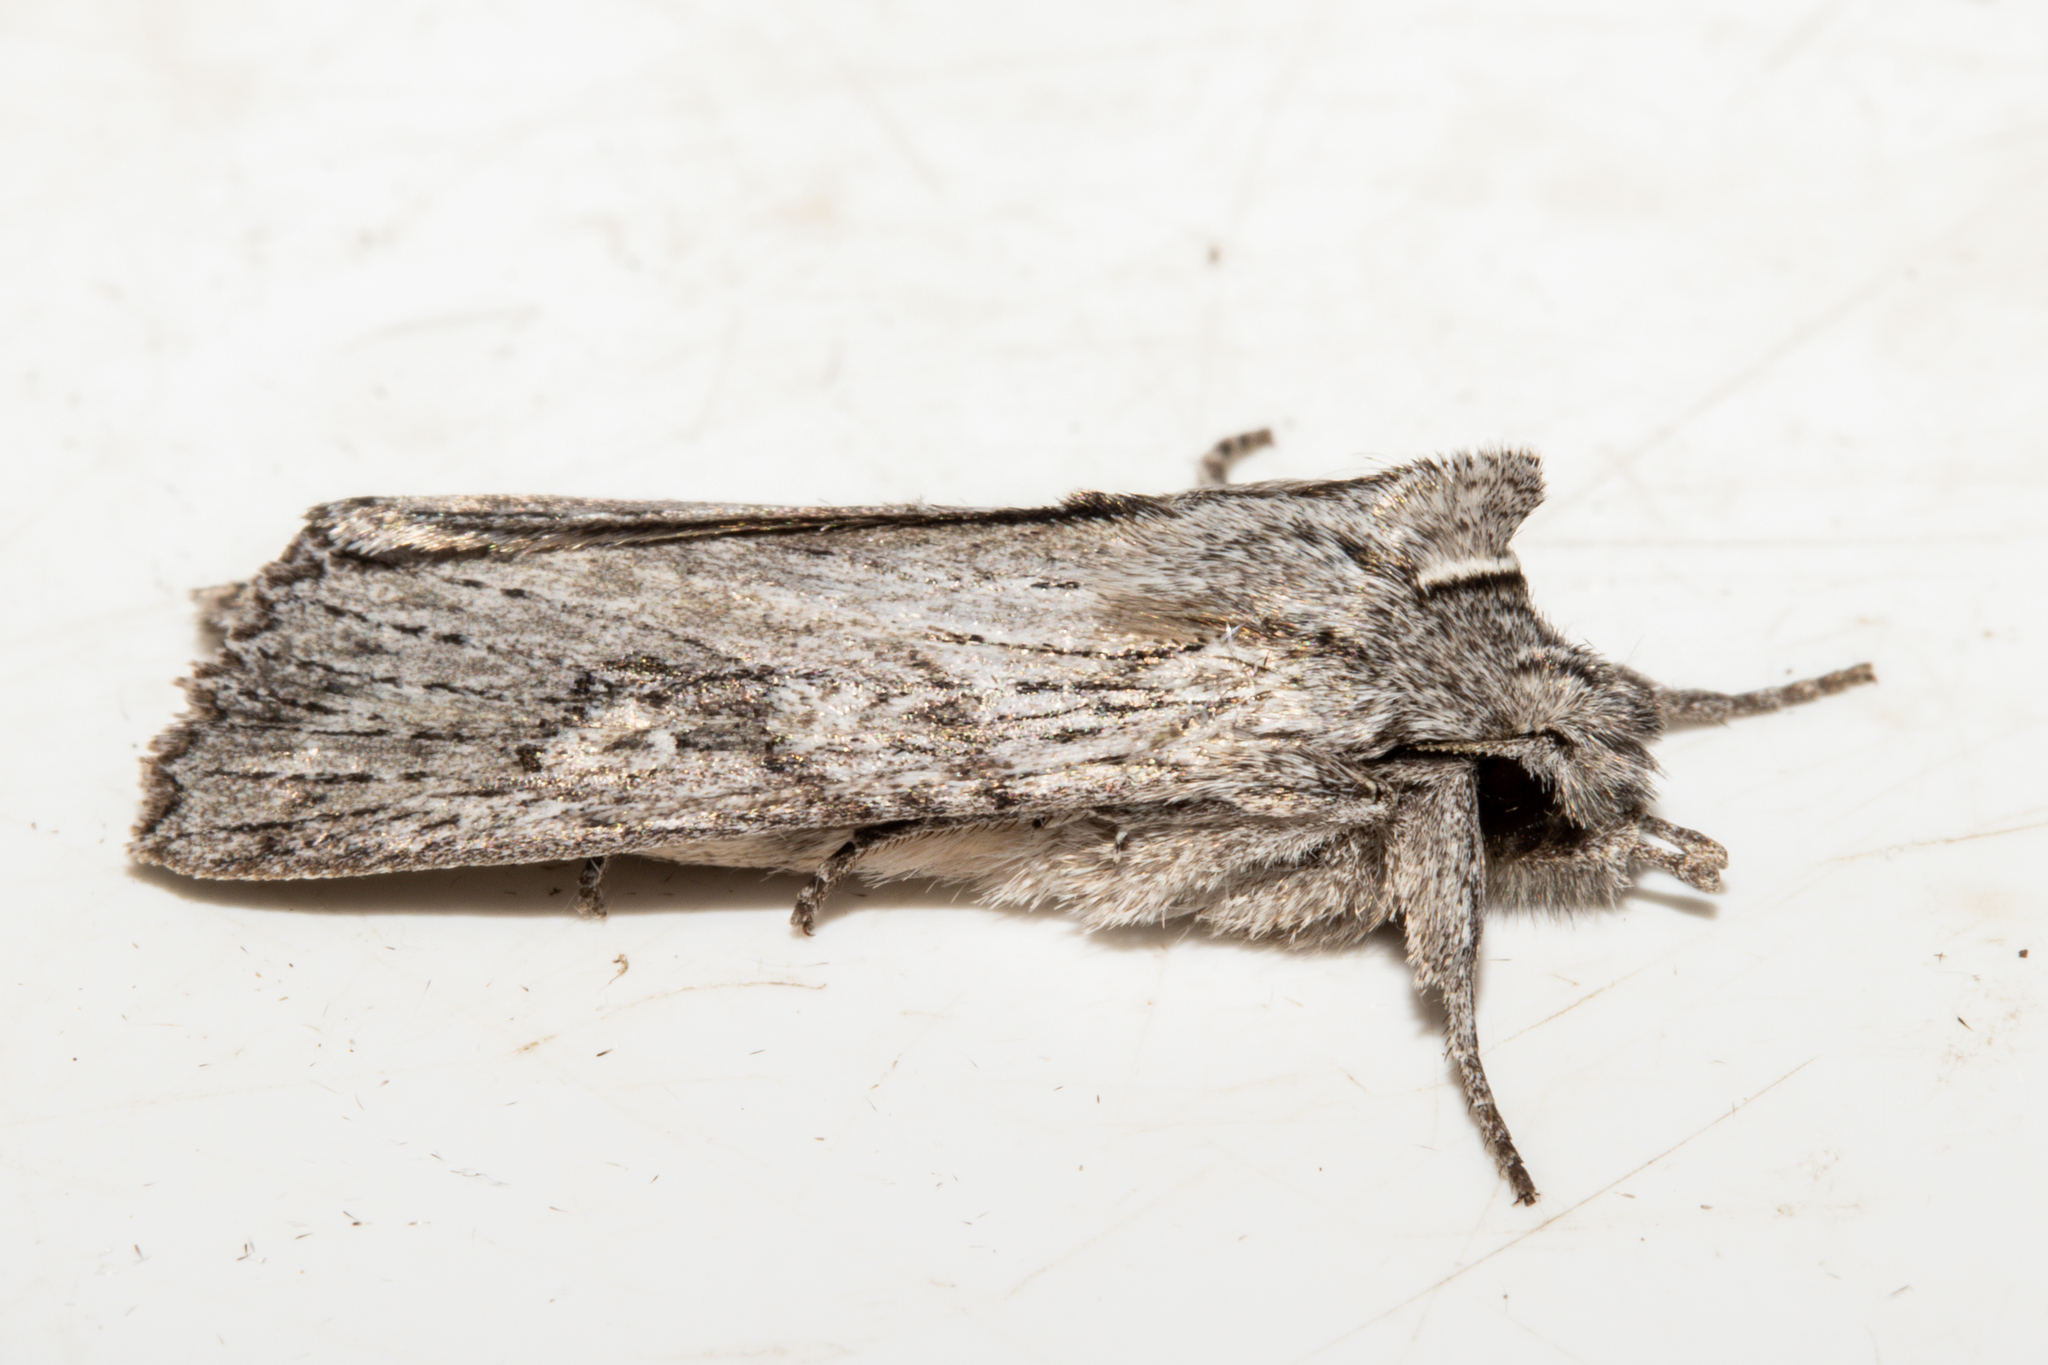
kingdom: Animalia
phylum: Arthropoda
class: Insecta
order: Lepidoptera
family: Noctuidae
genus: Physetica
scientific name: Physetica phricias
